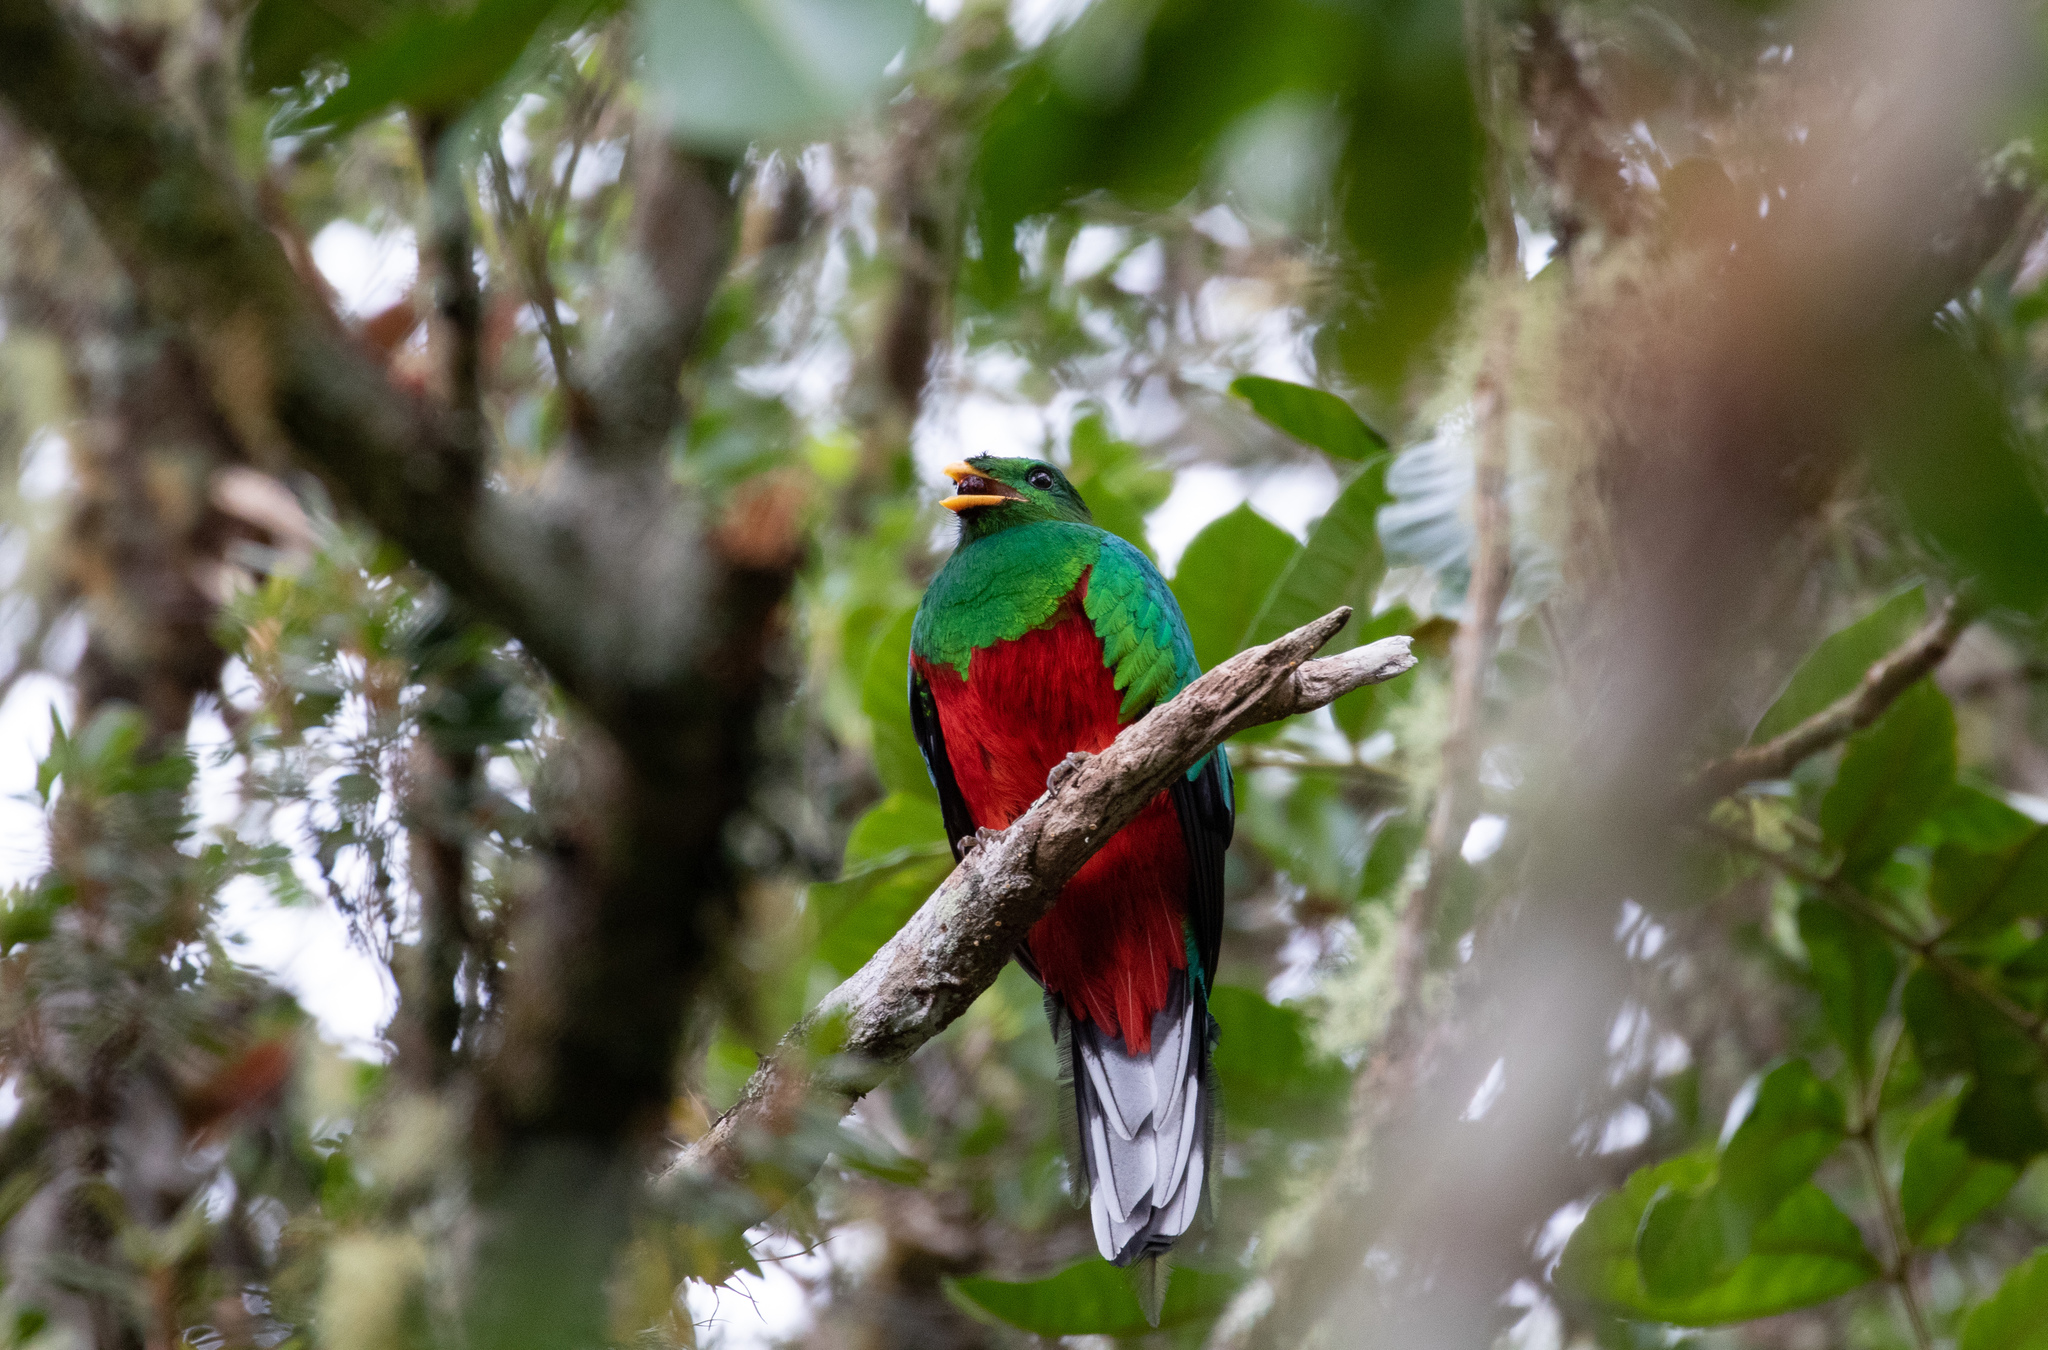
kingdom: Animalia
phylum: Chordata
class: Aves
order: Trogoniformes
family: Trogonidae
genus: Pharomachrus
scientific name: Pharomachrus fulgidus
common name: White-tipped quetzal
